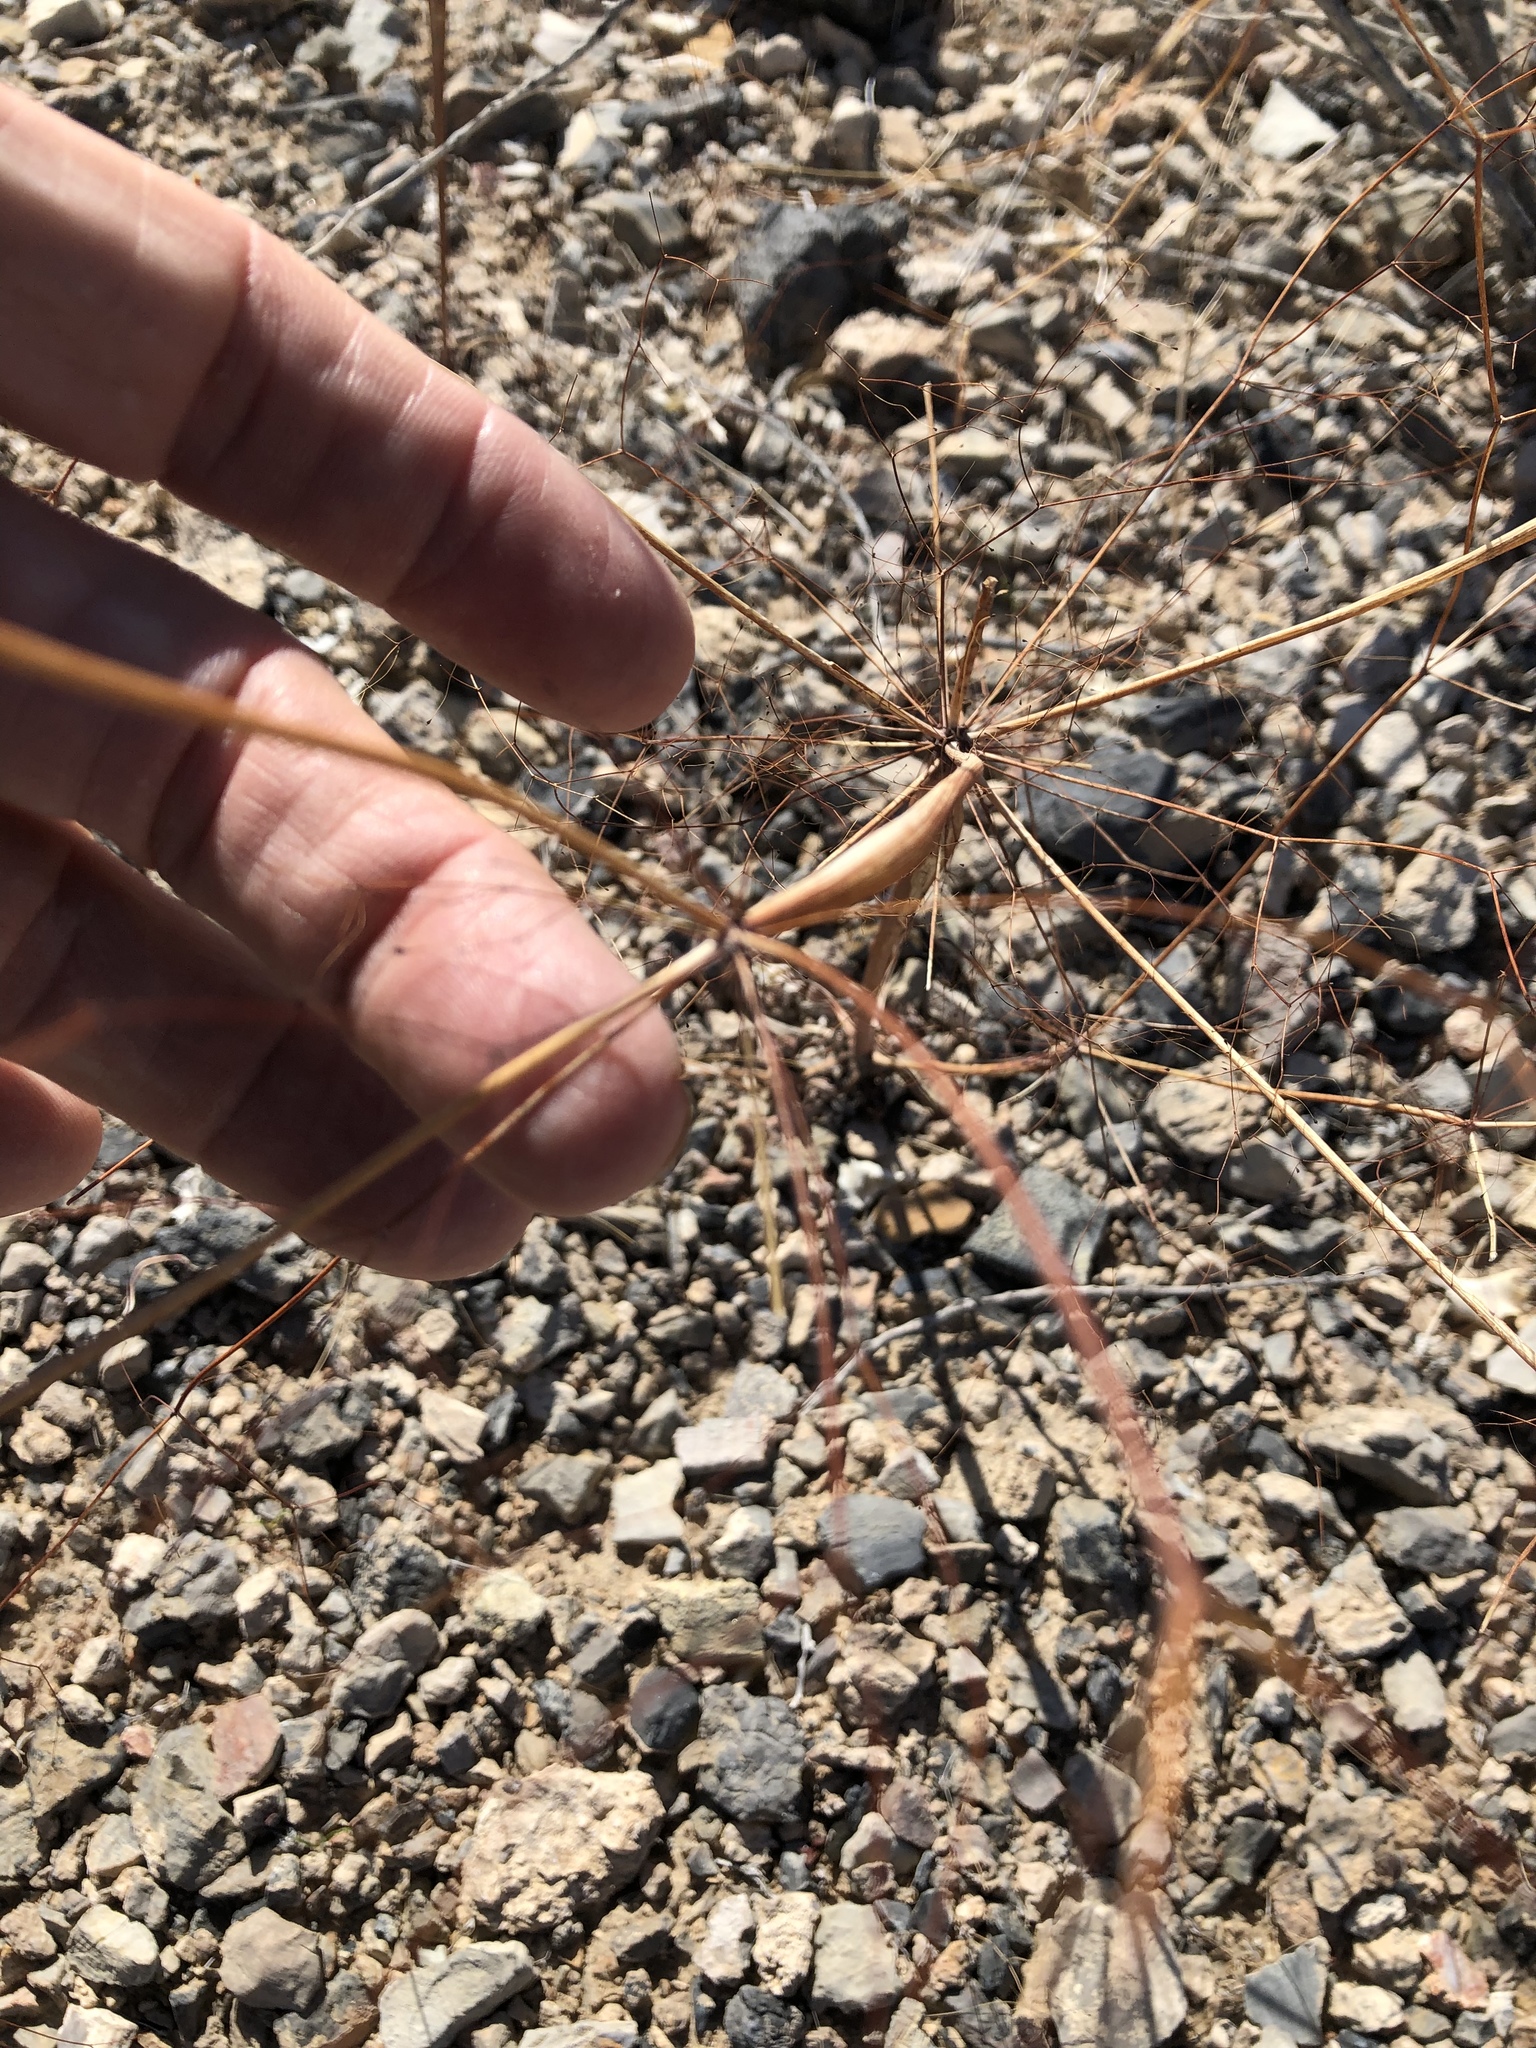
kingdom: Plantae
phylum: Tracheophyta
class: Magnoliopsida
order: Caryophyllales
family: Polygonaceae
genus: Eriogonum
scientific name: Eriogonum inflatum
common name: Desert trumpet
